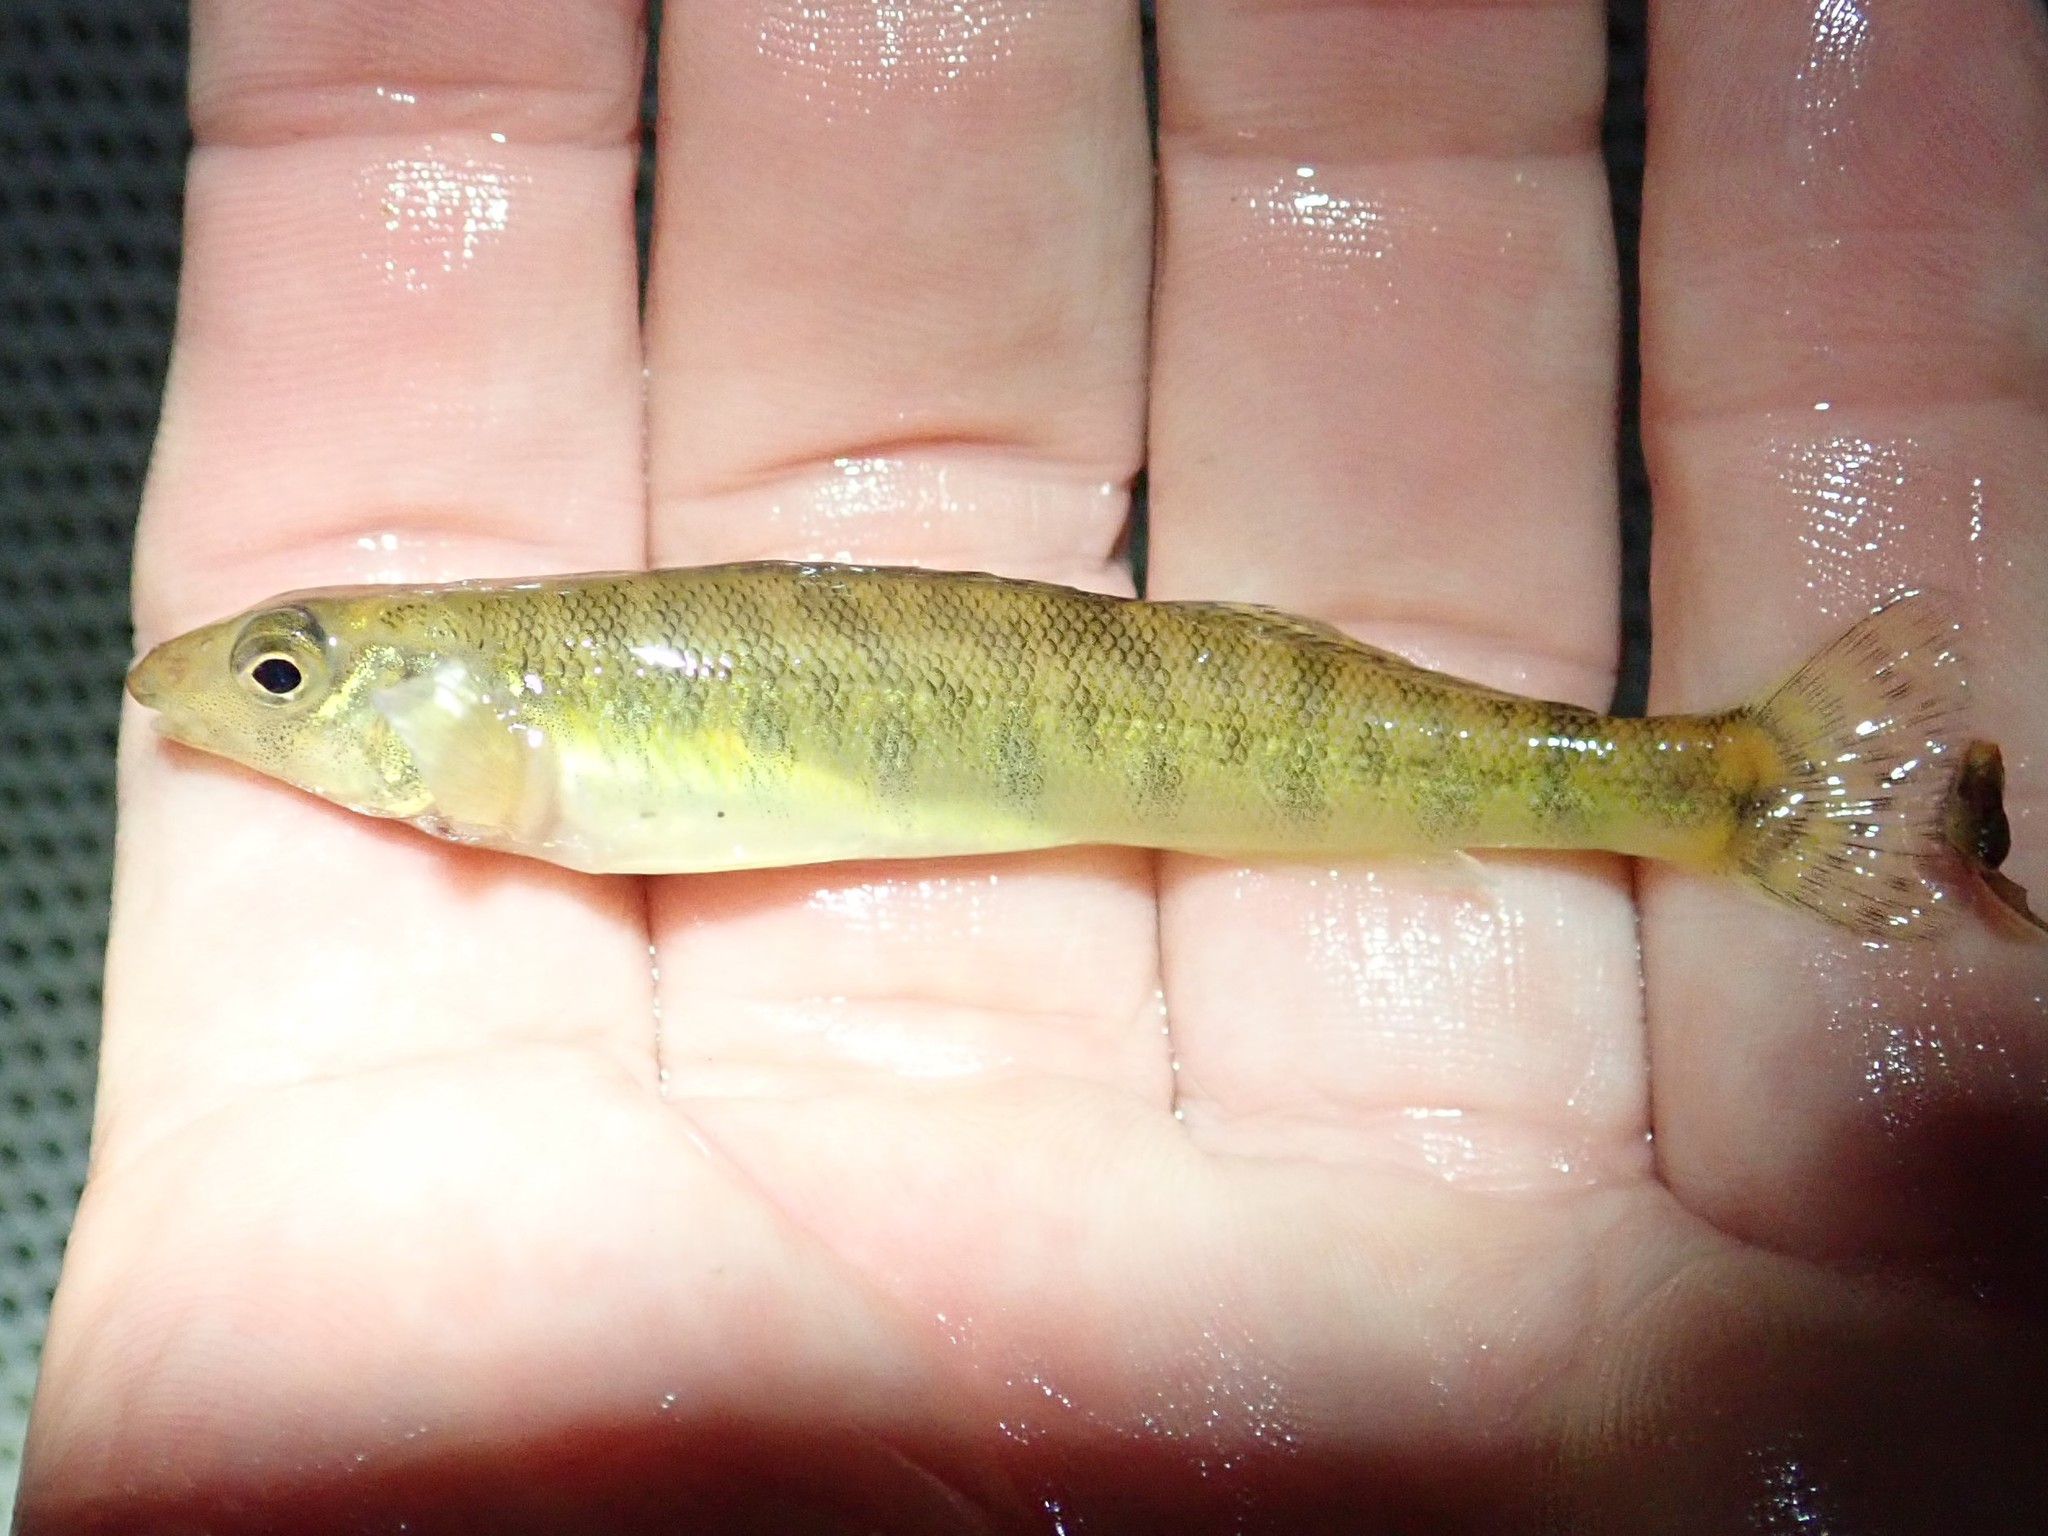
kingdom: Animalia
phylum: Chordata
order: Perciformes
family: Percidae
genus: Percina
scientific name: Percina caprodes
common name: Logperch
